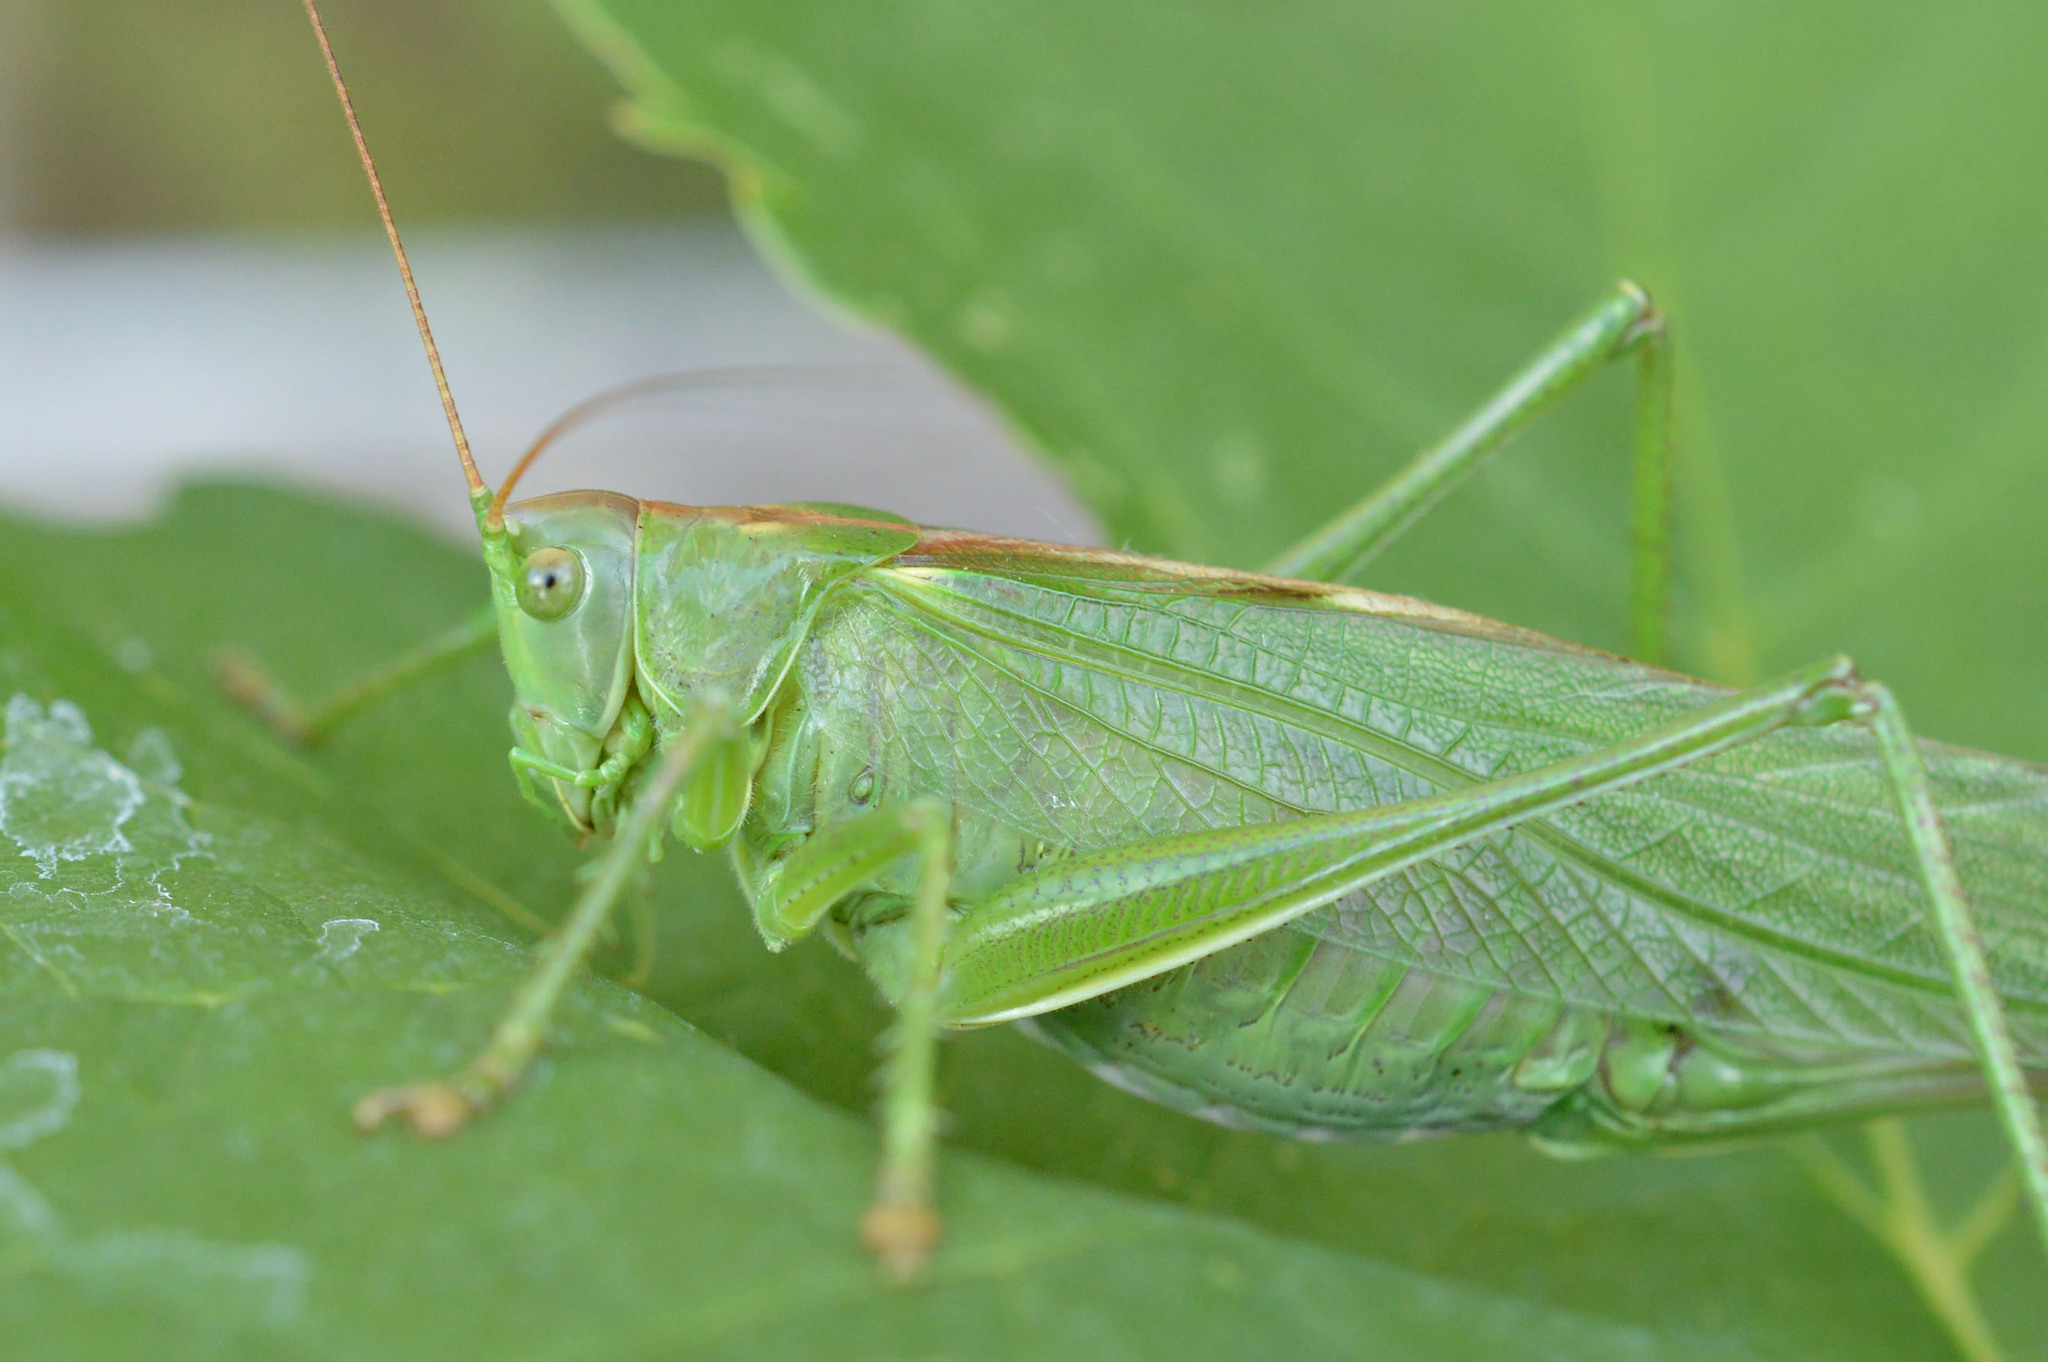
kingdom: Animalia
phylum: Arthropoda
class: Insecta
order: Orthoptera
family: Tettigoniidae
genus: Tettigonia
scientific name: Tettigonia viridissima
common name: Great green bush-cricket
